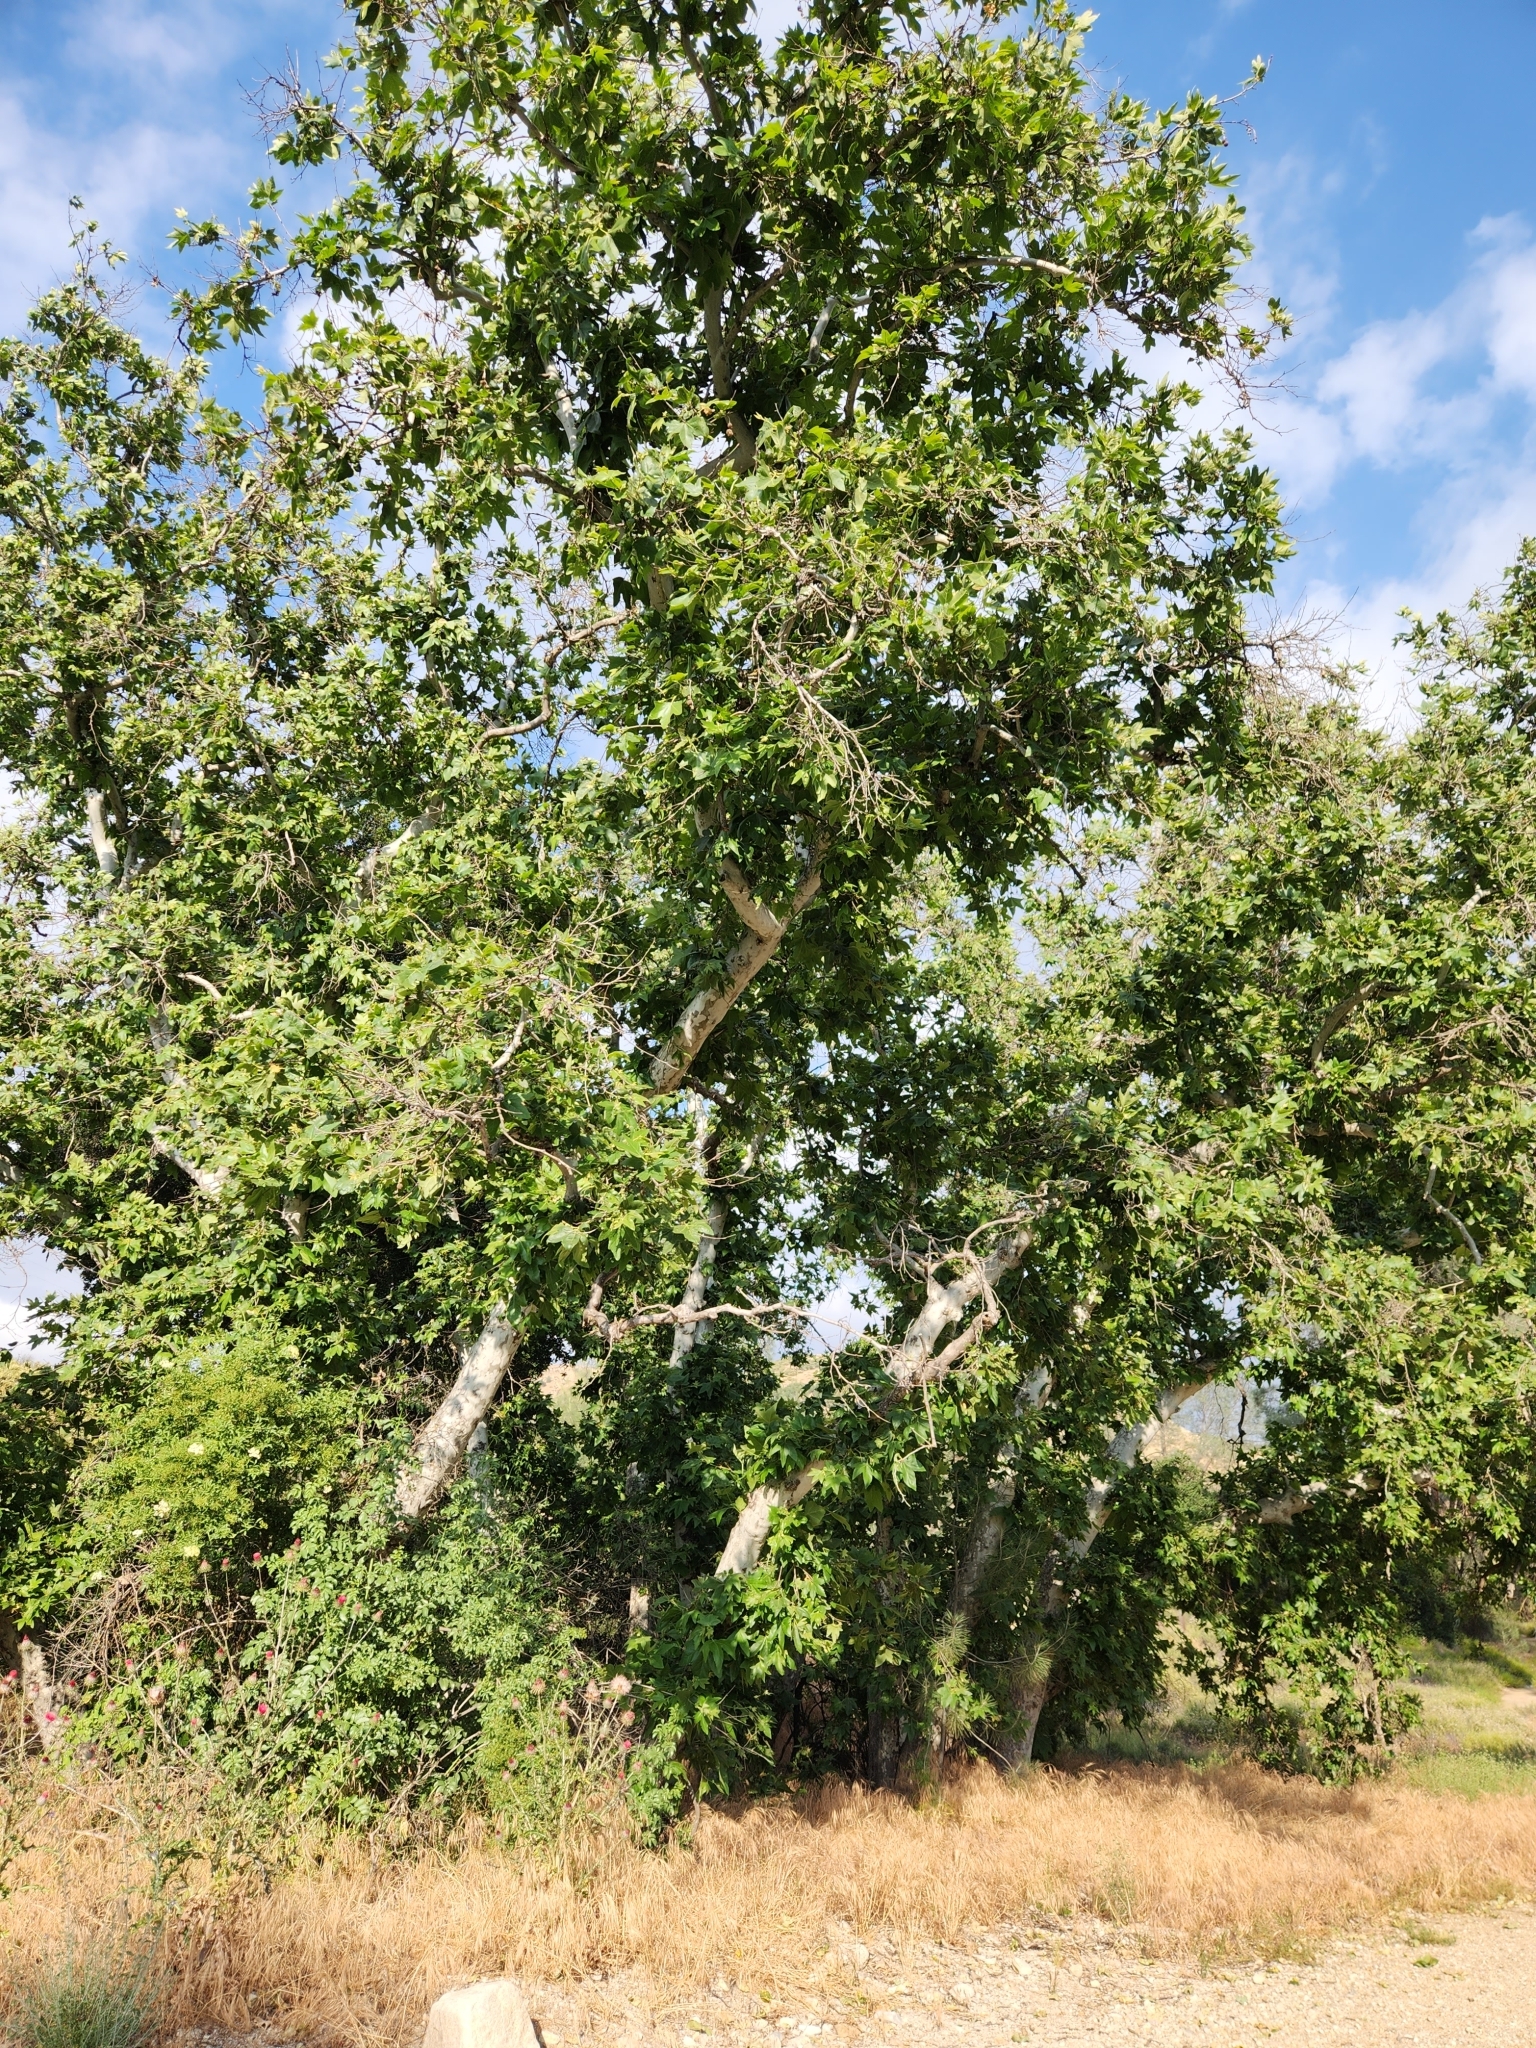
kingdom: Plantae
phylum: Tracheophyta
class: Magnoliopsida
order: Proteales
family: Platanaceae
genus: Platanus
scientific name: Platanus racemosa
